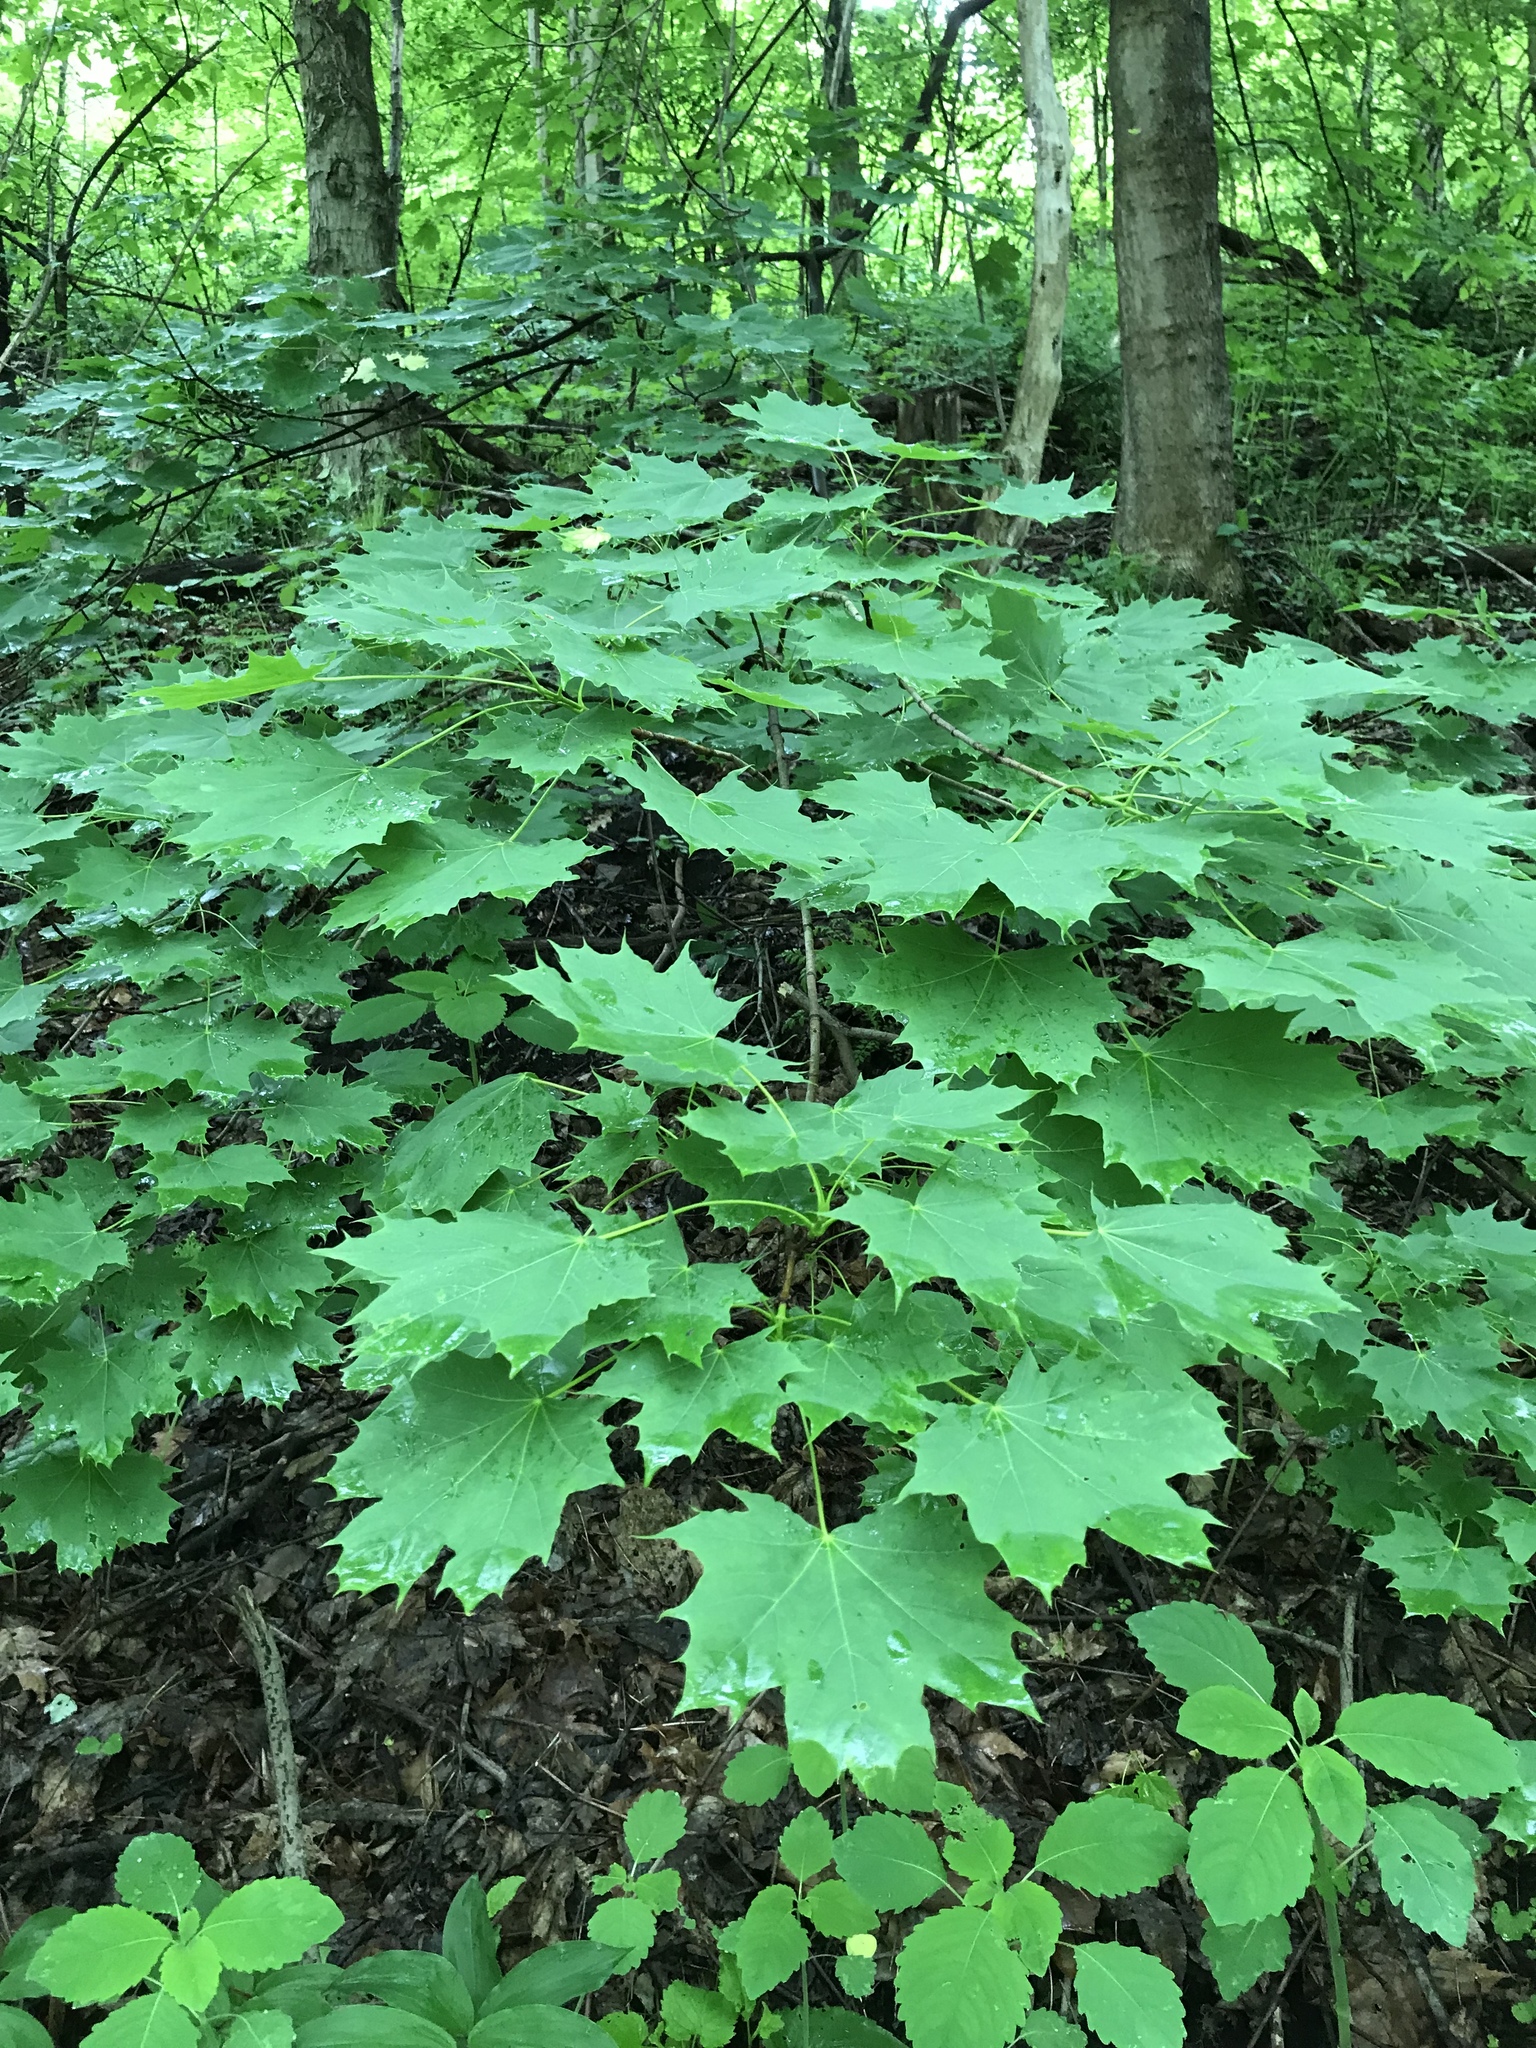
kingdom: Plantae
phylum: Tracheophyta
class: Magnoliopsida
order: Sapindales
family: Sapindaceae
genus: Acer
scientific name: Acer platanoides
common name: Norway maple
